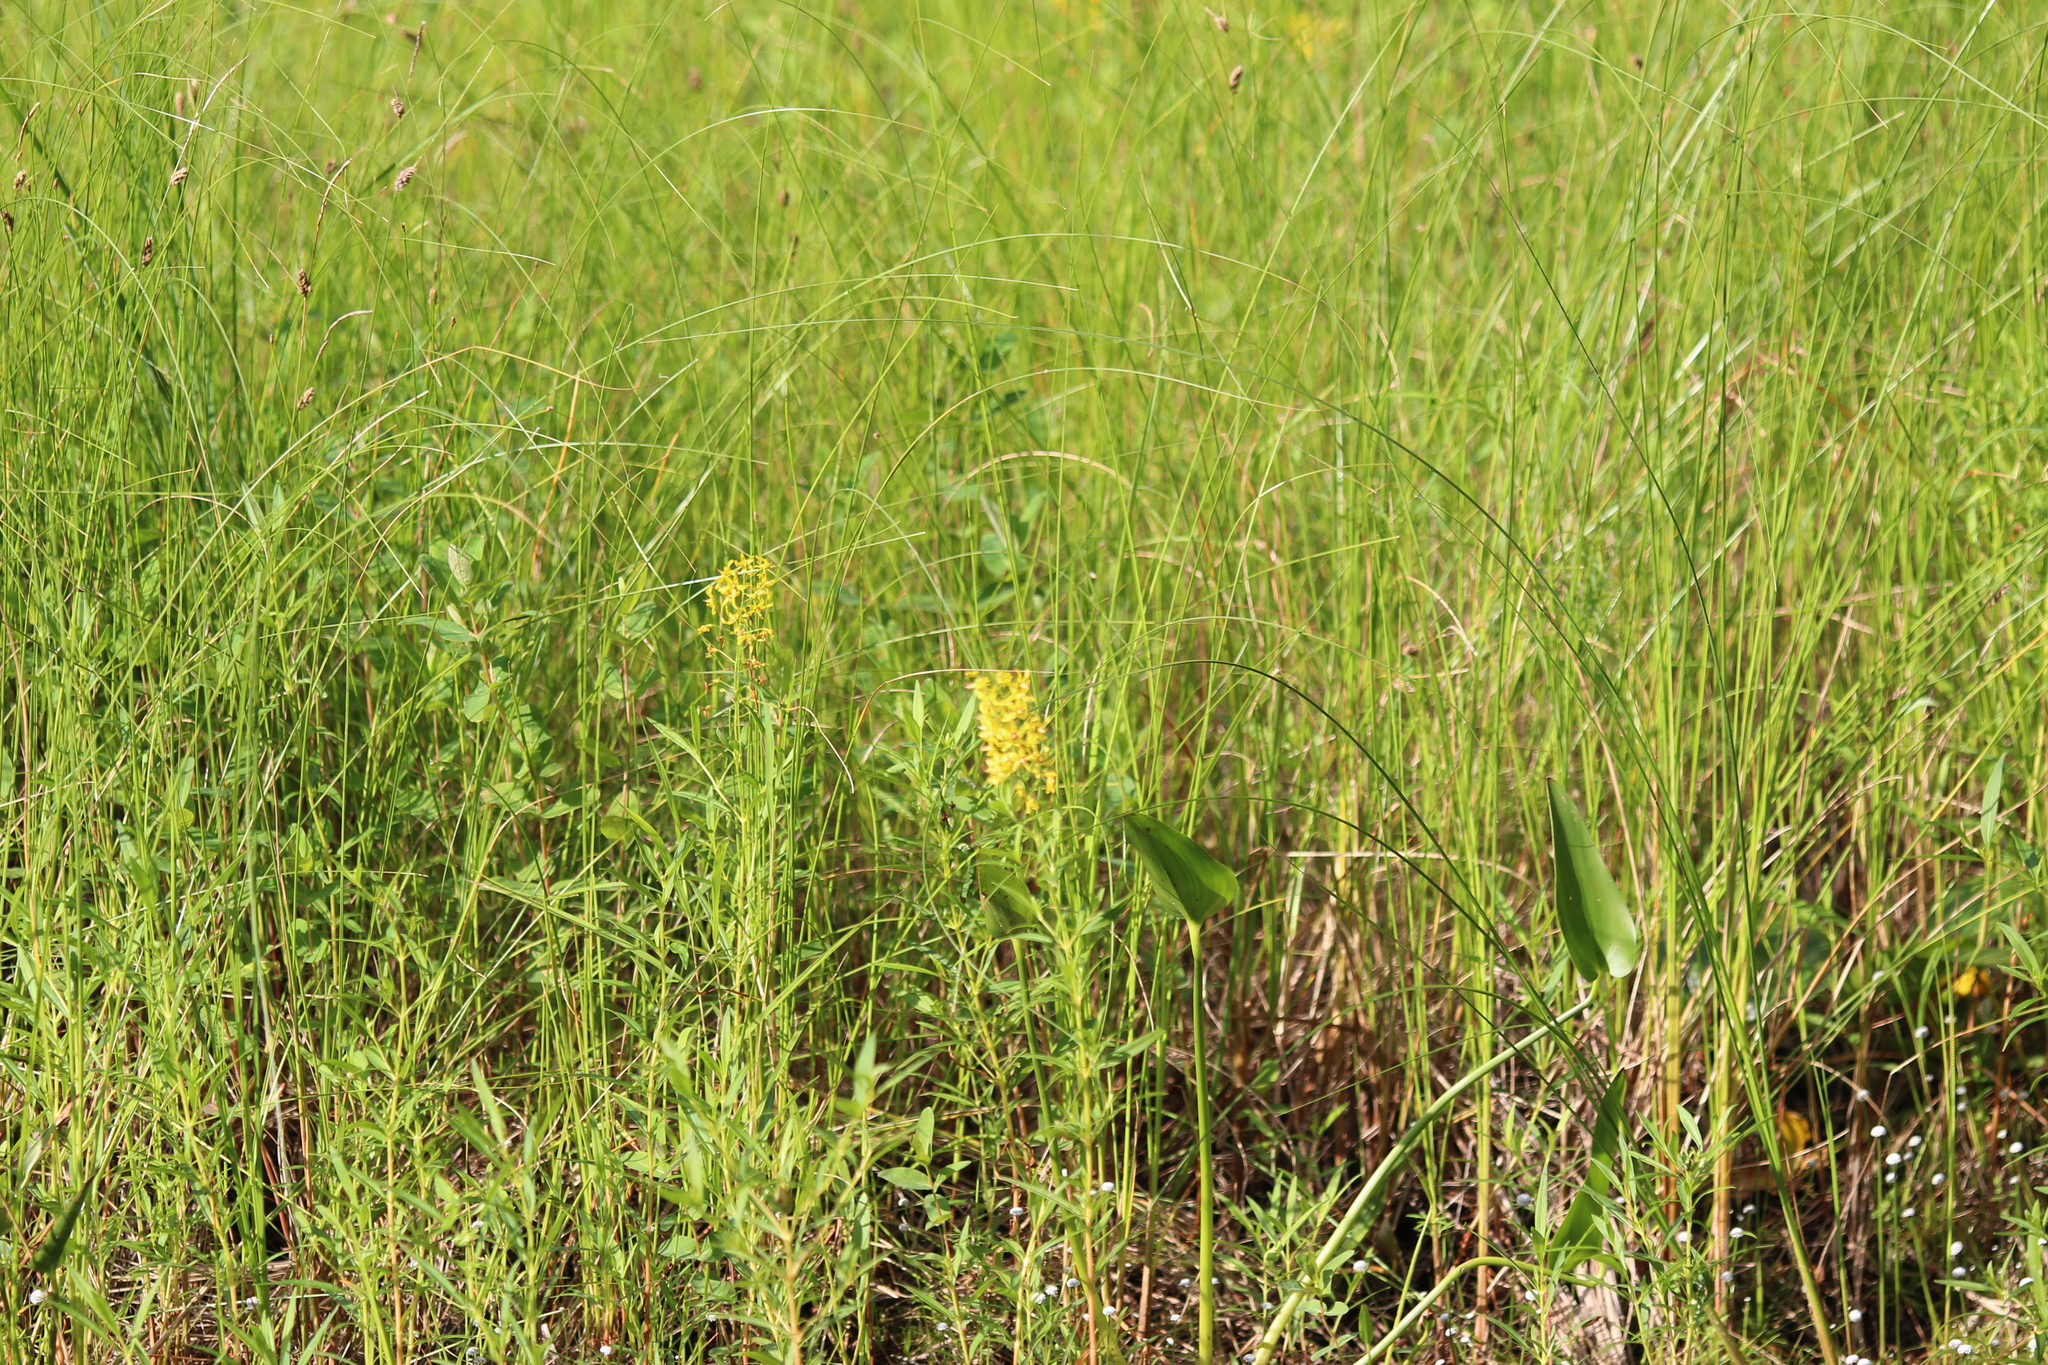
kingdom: Plantae
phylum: Tracheophyta
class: Magnoliopsida
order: Ericales
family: Primulaceae
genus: Lysimachia
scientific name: Lysimachia terrestris
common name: Lake loosestrife
